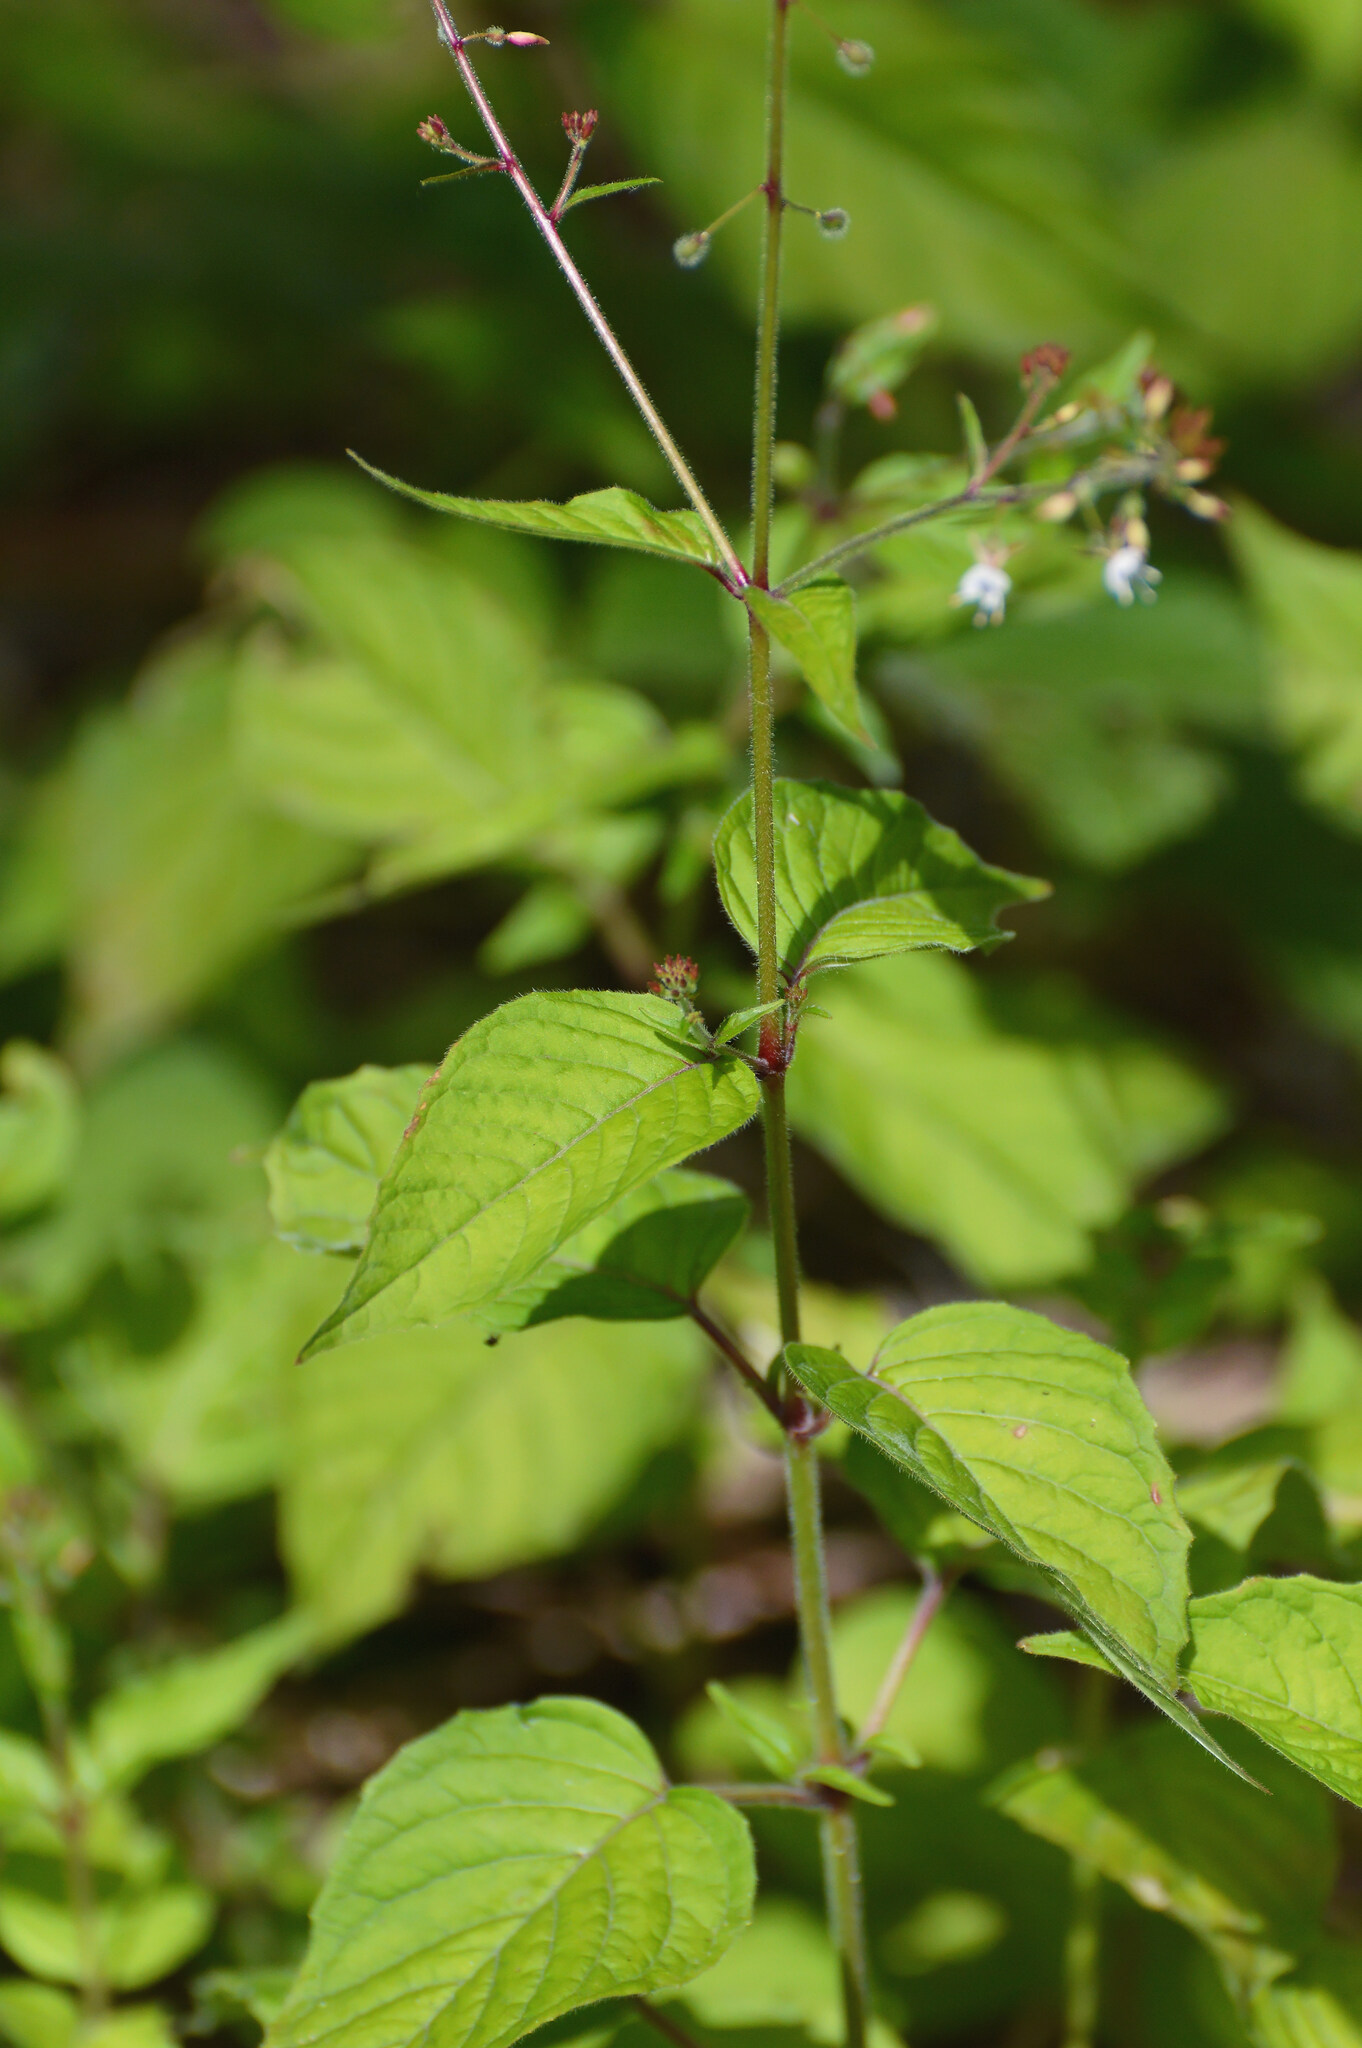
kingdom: Plantae
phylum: Tracheophyta
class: Magnoliopsida
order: Myrtales
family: Onagraceae
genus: Circaea
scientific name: Circaea lutetiana
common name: Enchanter's-nightshade
